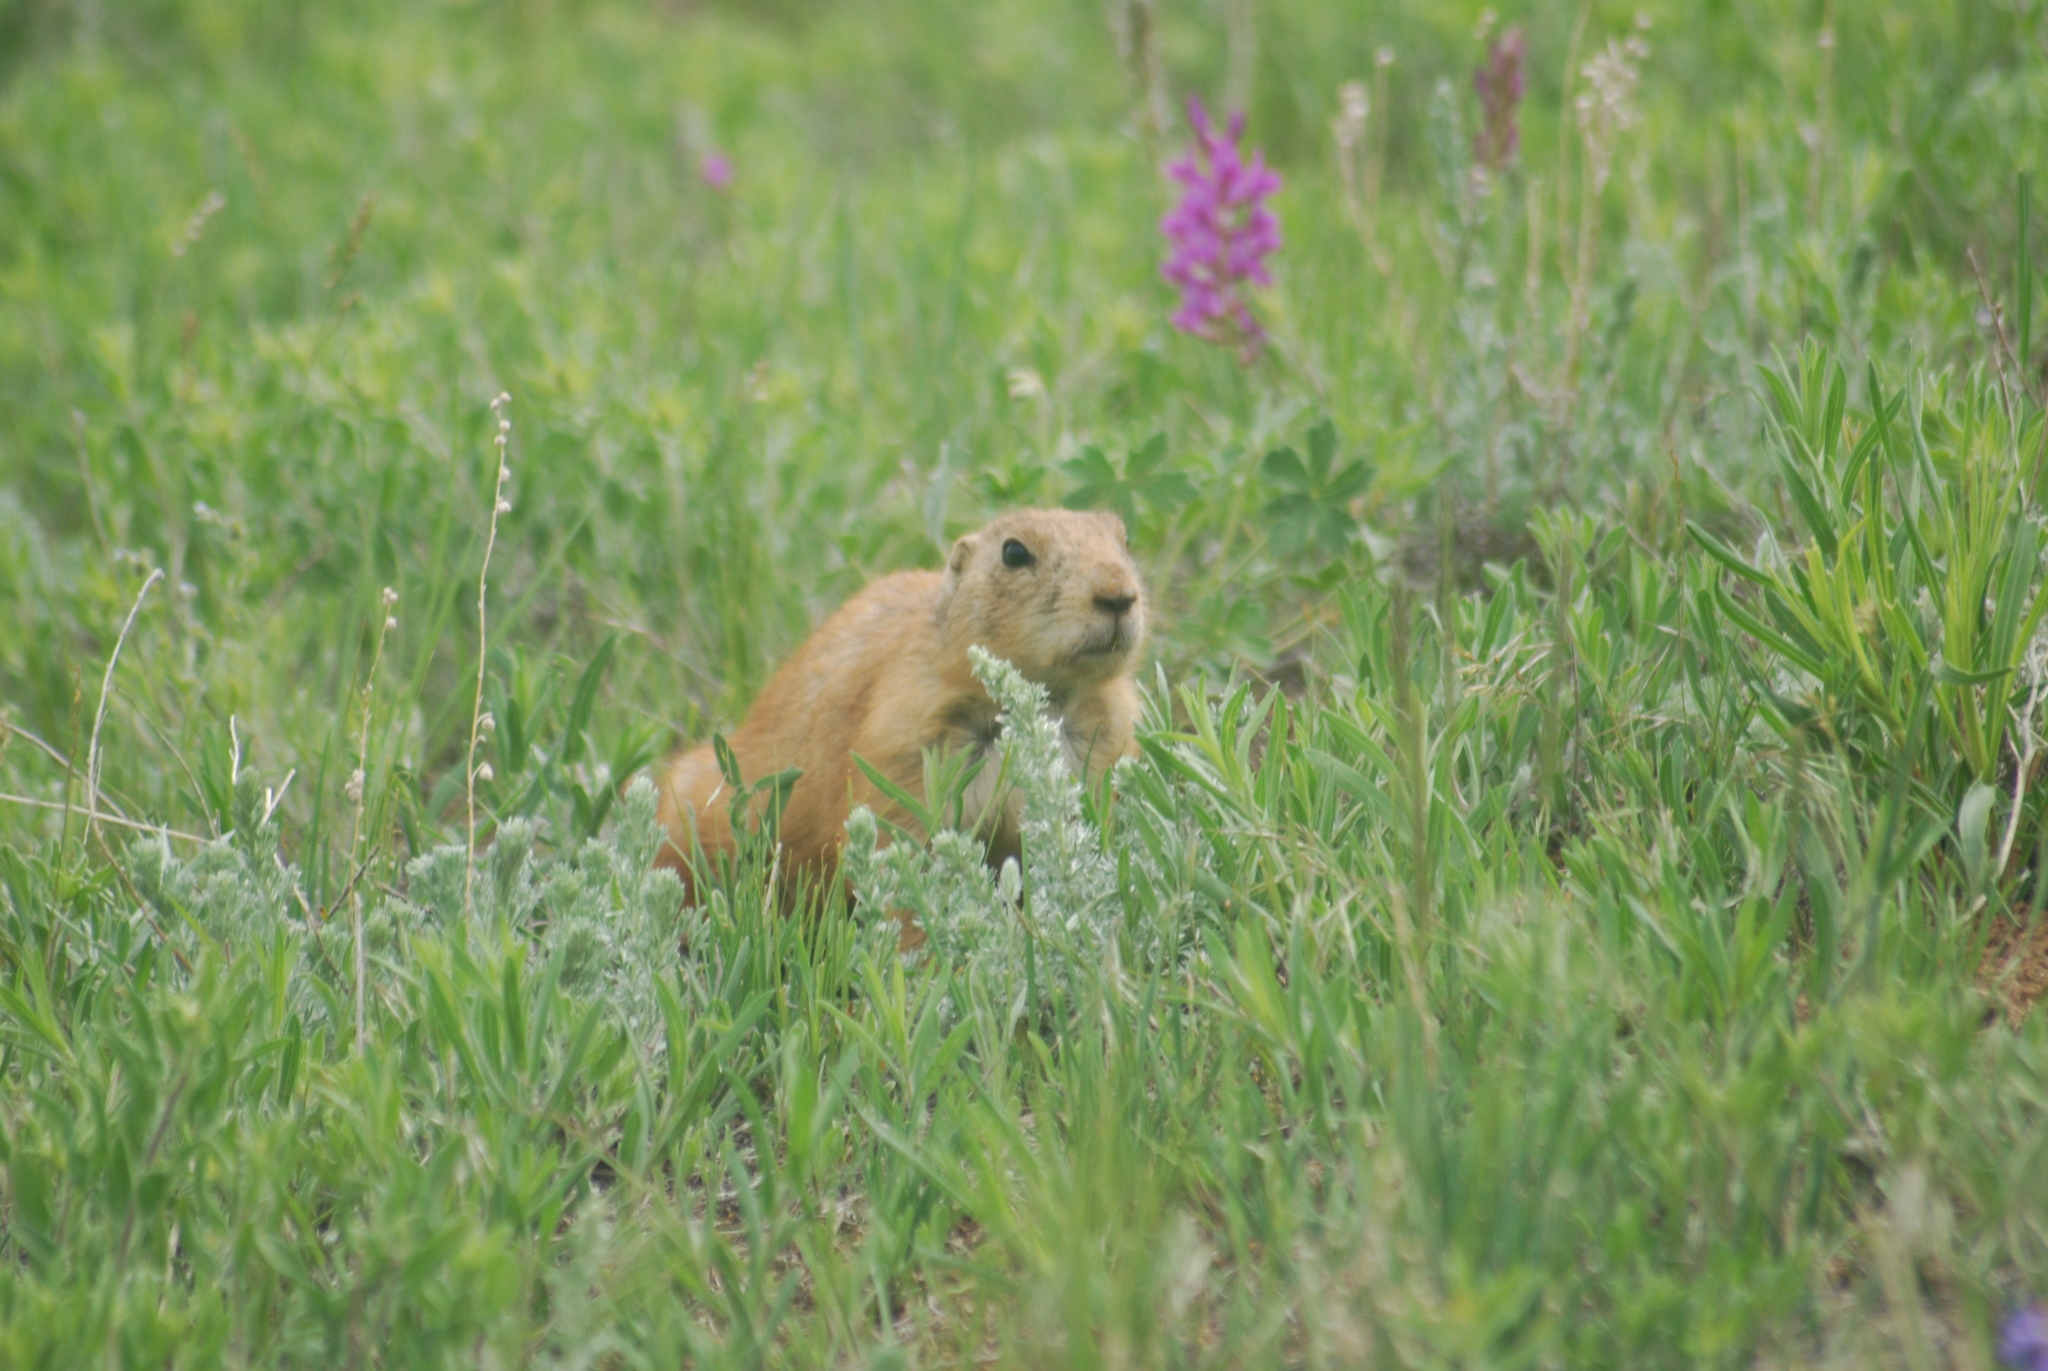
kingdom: Animalia
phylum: Chordata
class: Mammalia
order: Rodentia
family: Sciuridae
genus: Cynomys
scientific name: Cynomys ludovicianus
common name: Black-tailed prairie dog
